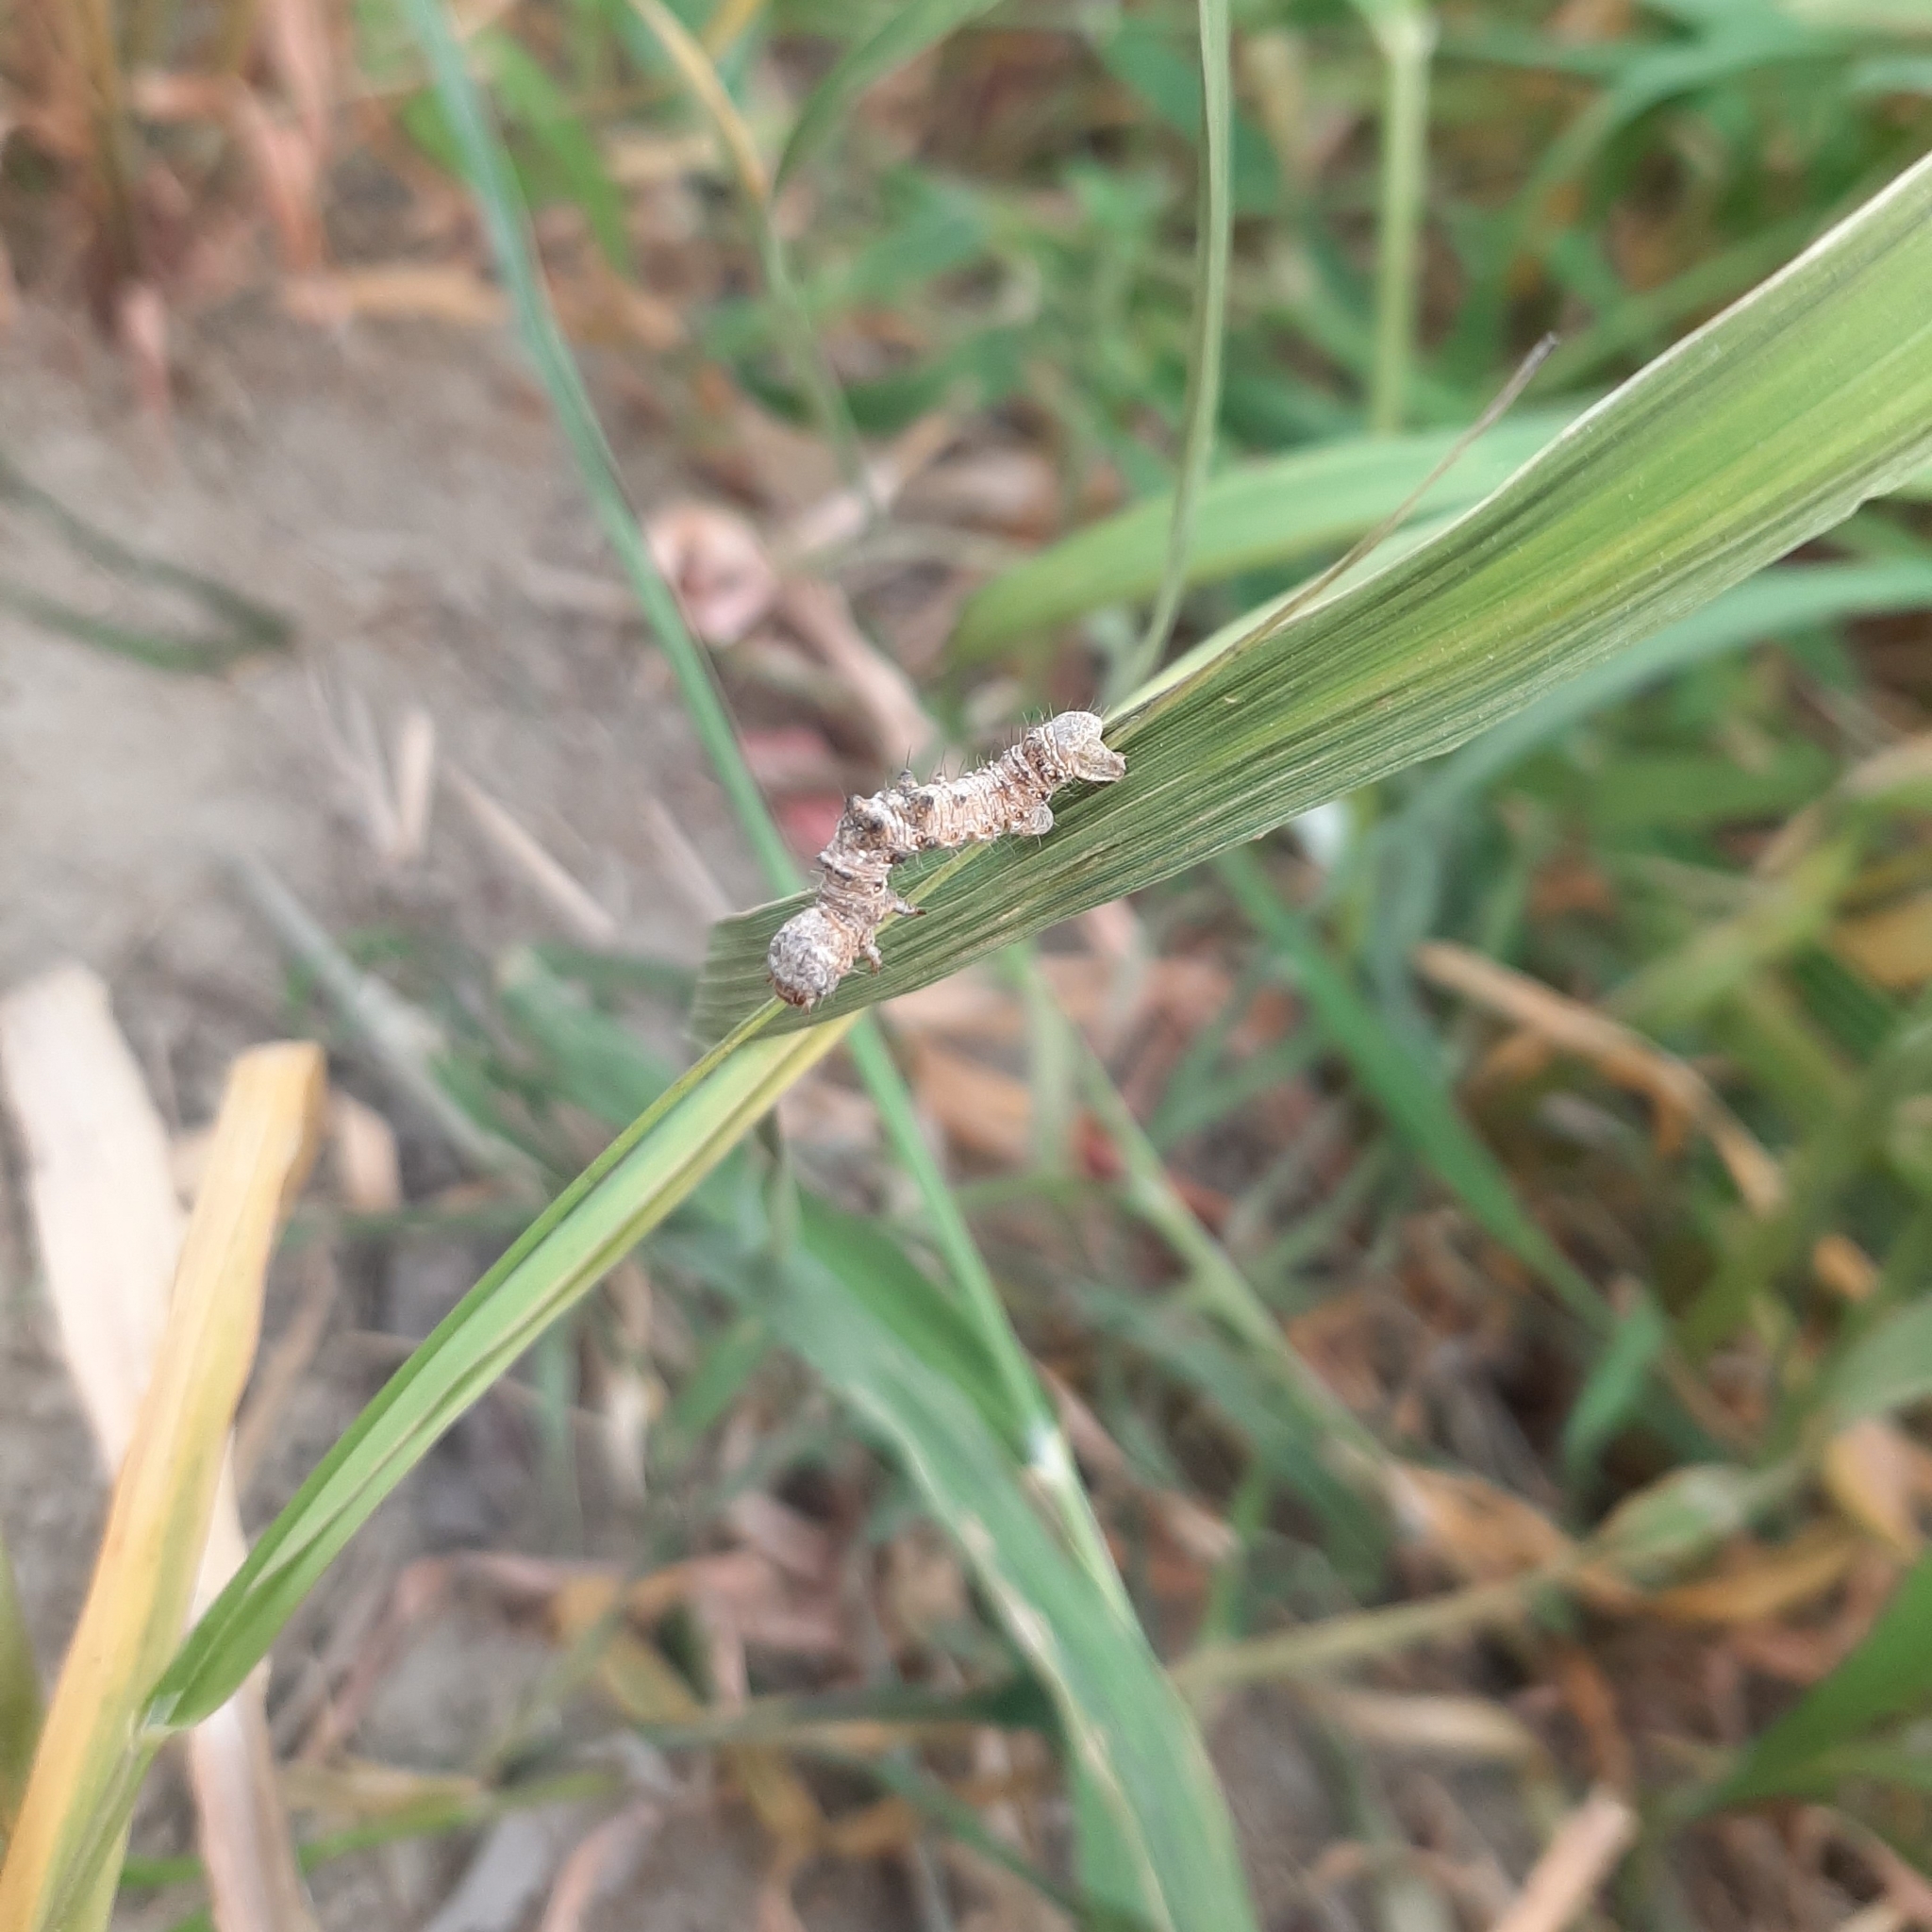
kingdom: Animalia
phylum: Arthropoda
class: Insecta
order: Lepidoptera
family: Geometridae
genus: Phigalia
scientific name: Phigalia pilosaria
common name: Pale brindled beauty
